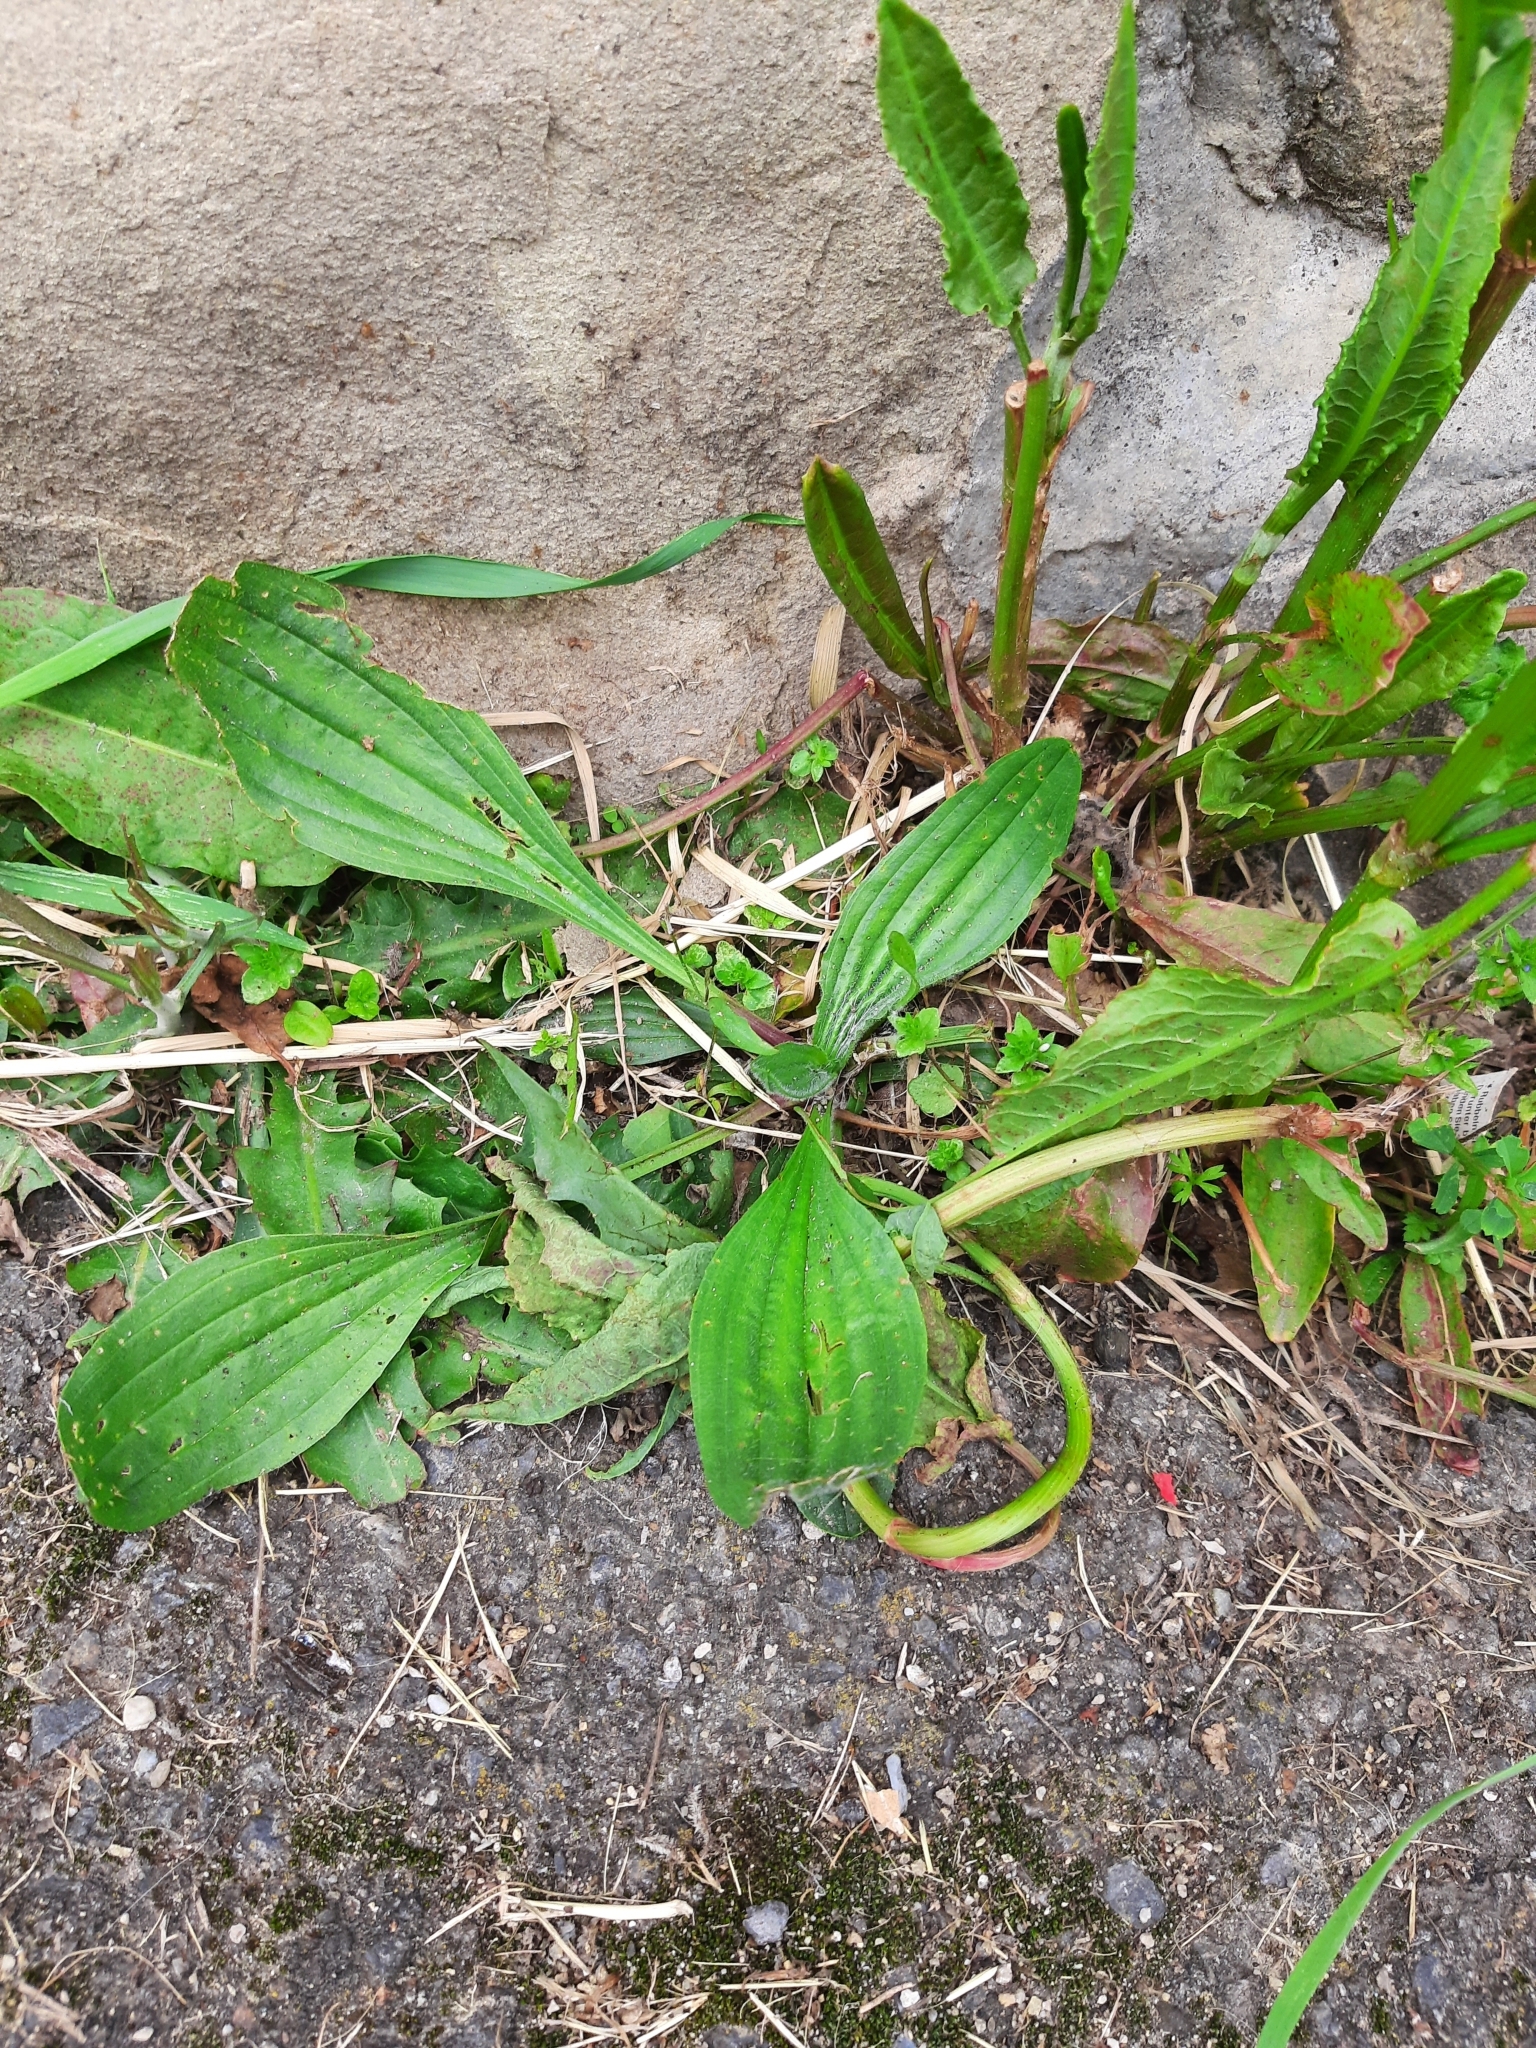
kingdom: Plantae
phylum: Tracheophyta
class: Magnoliopsida
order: Lamiales
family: Plantaginaceae
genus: Plantago
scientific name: Plantago lanceolata
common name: Ribwort plantain
